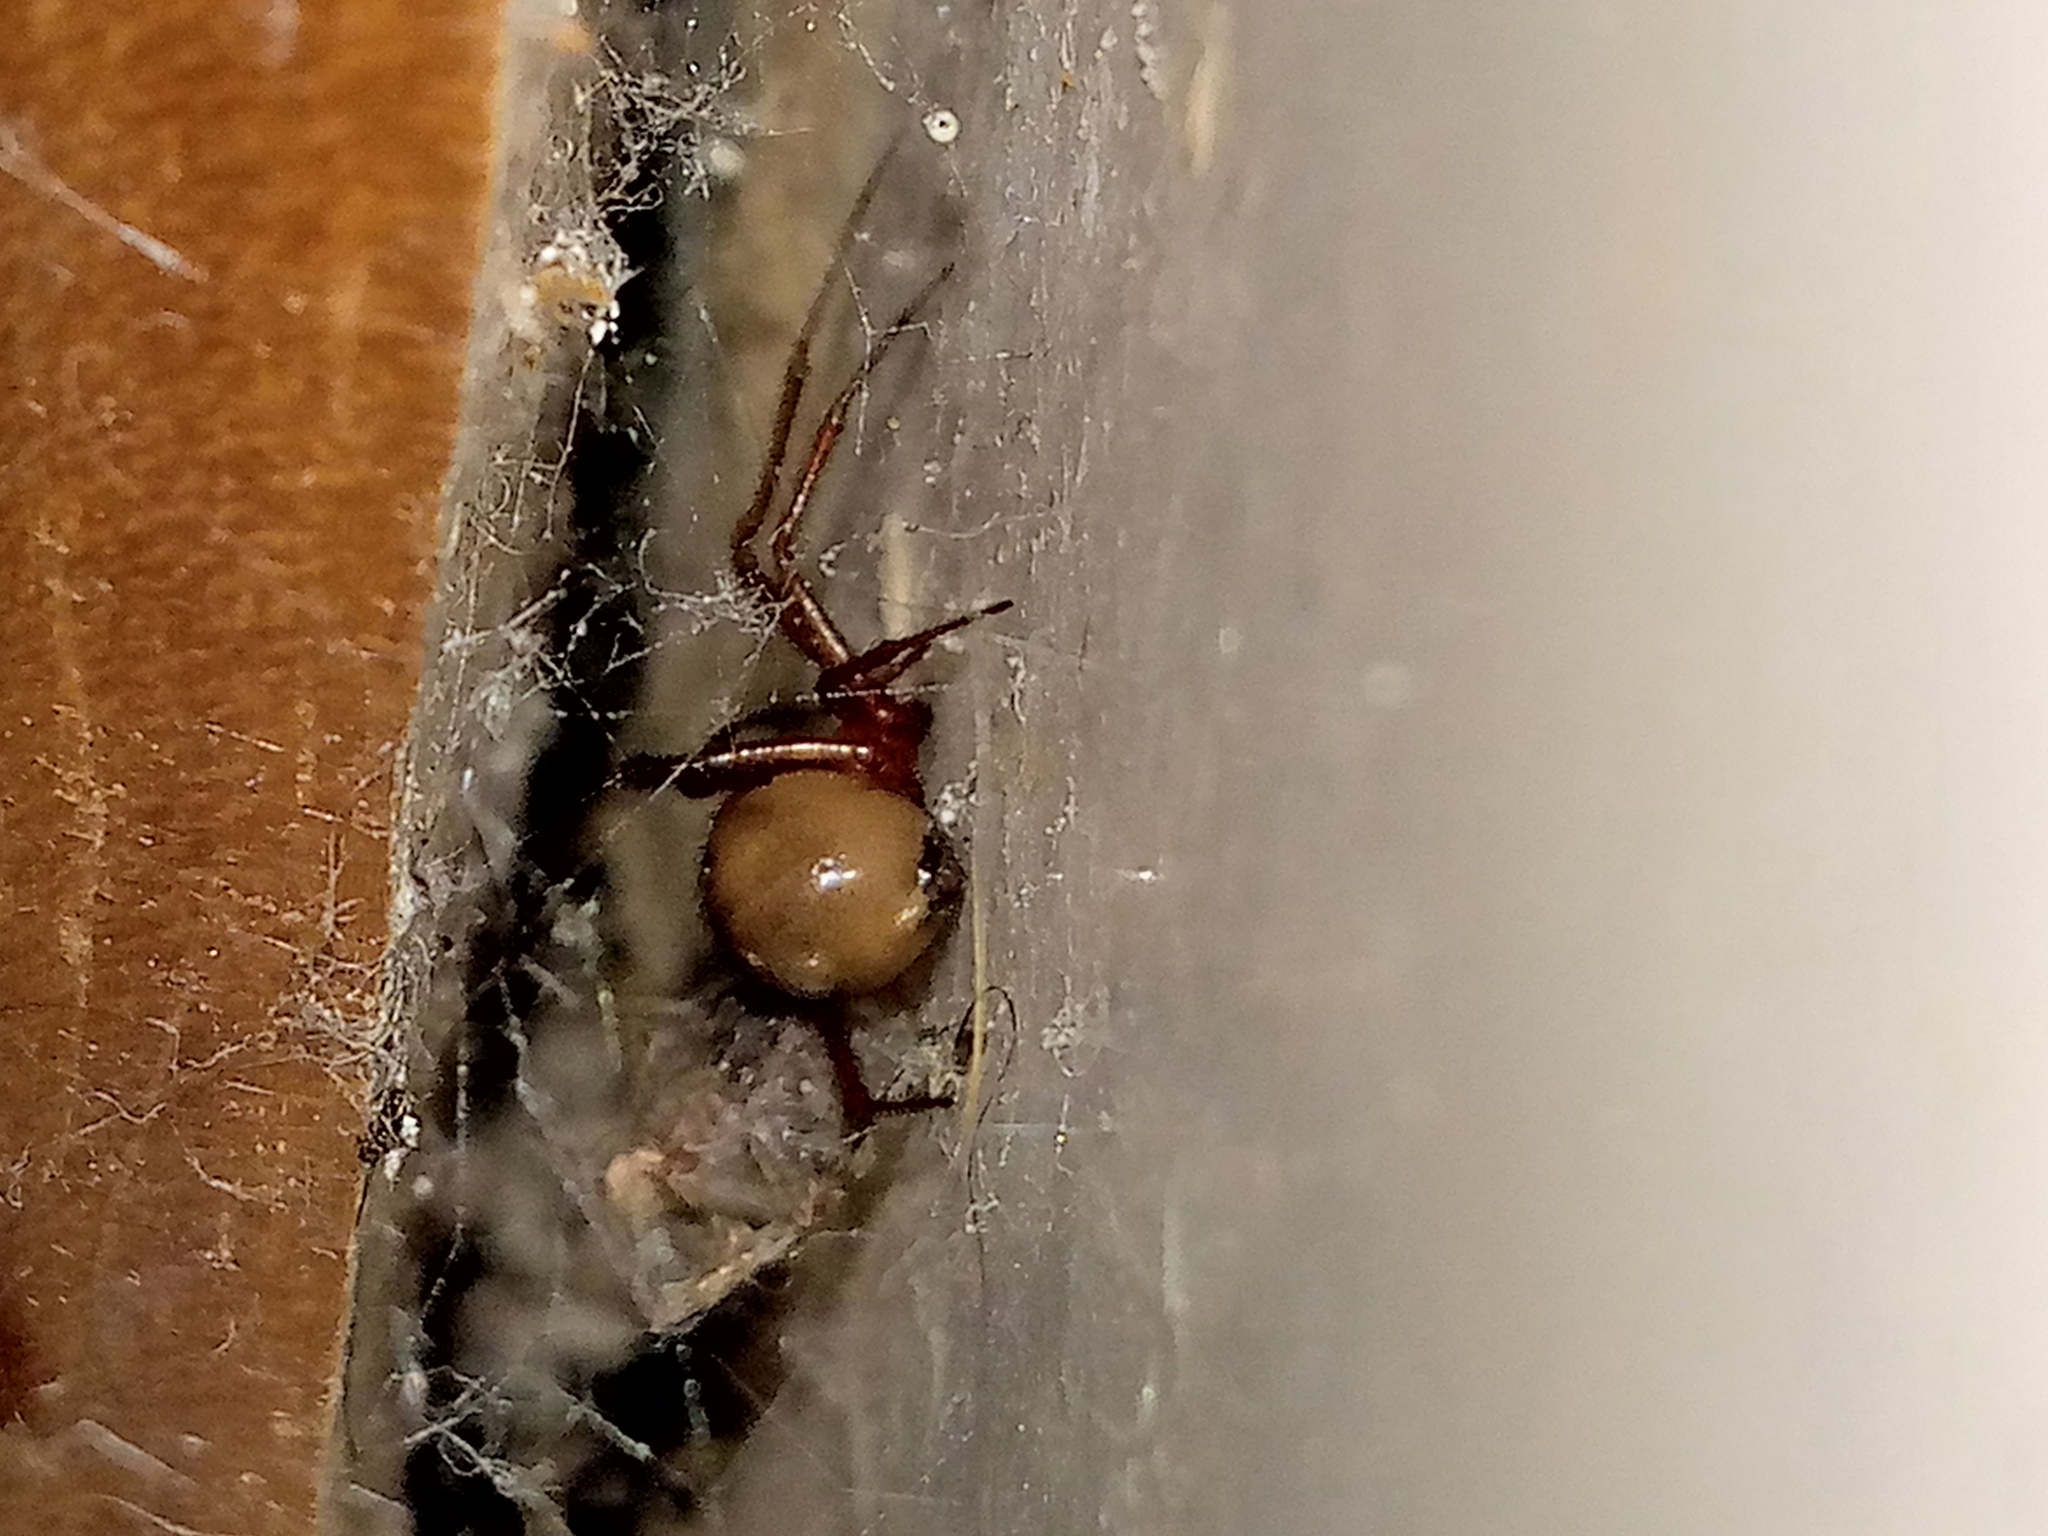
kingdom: Animalia
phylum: Arthropoda
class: Arachnida
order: Araneae
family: Theridiidae
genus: Nesticodes
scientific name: Nesticodes rufipes
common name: Cobweb spiders
